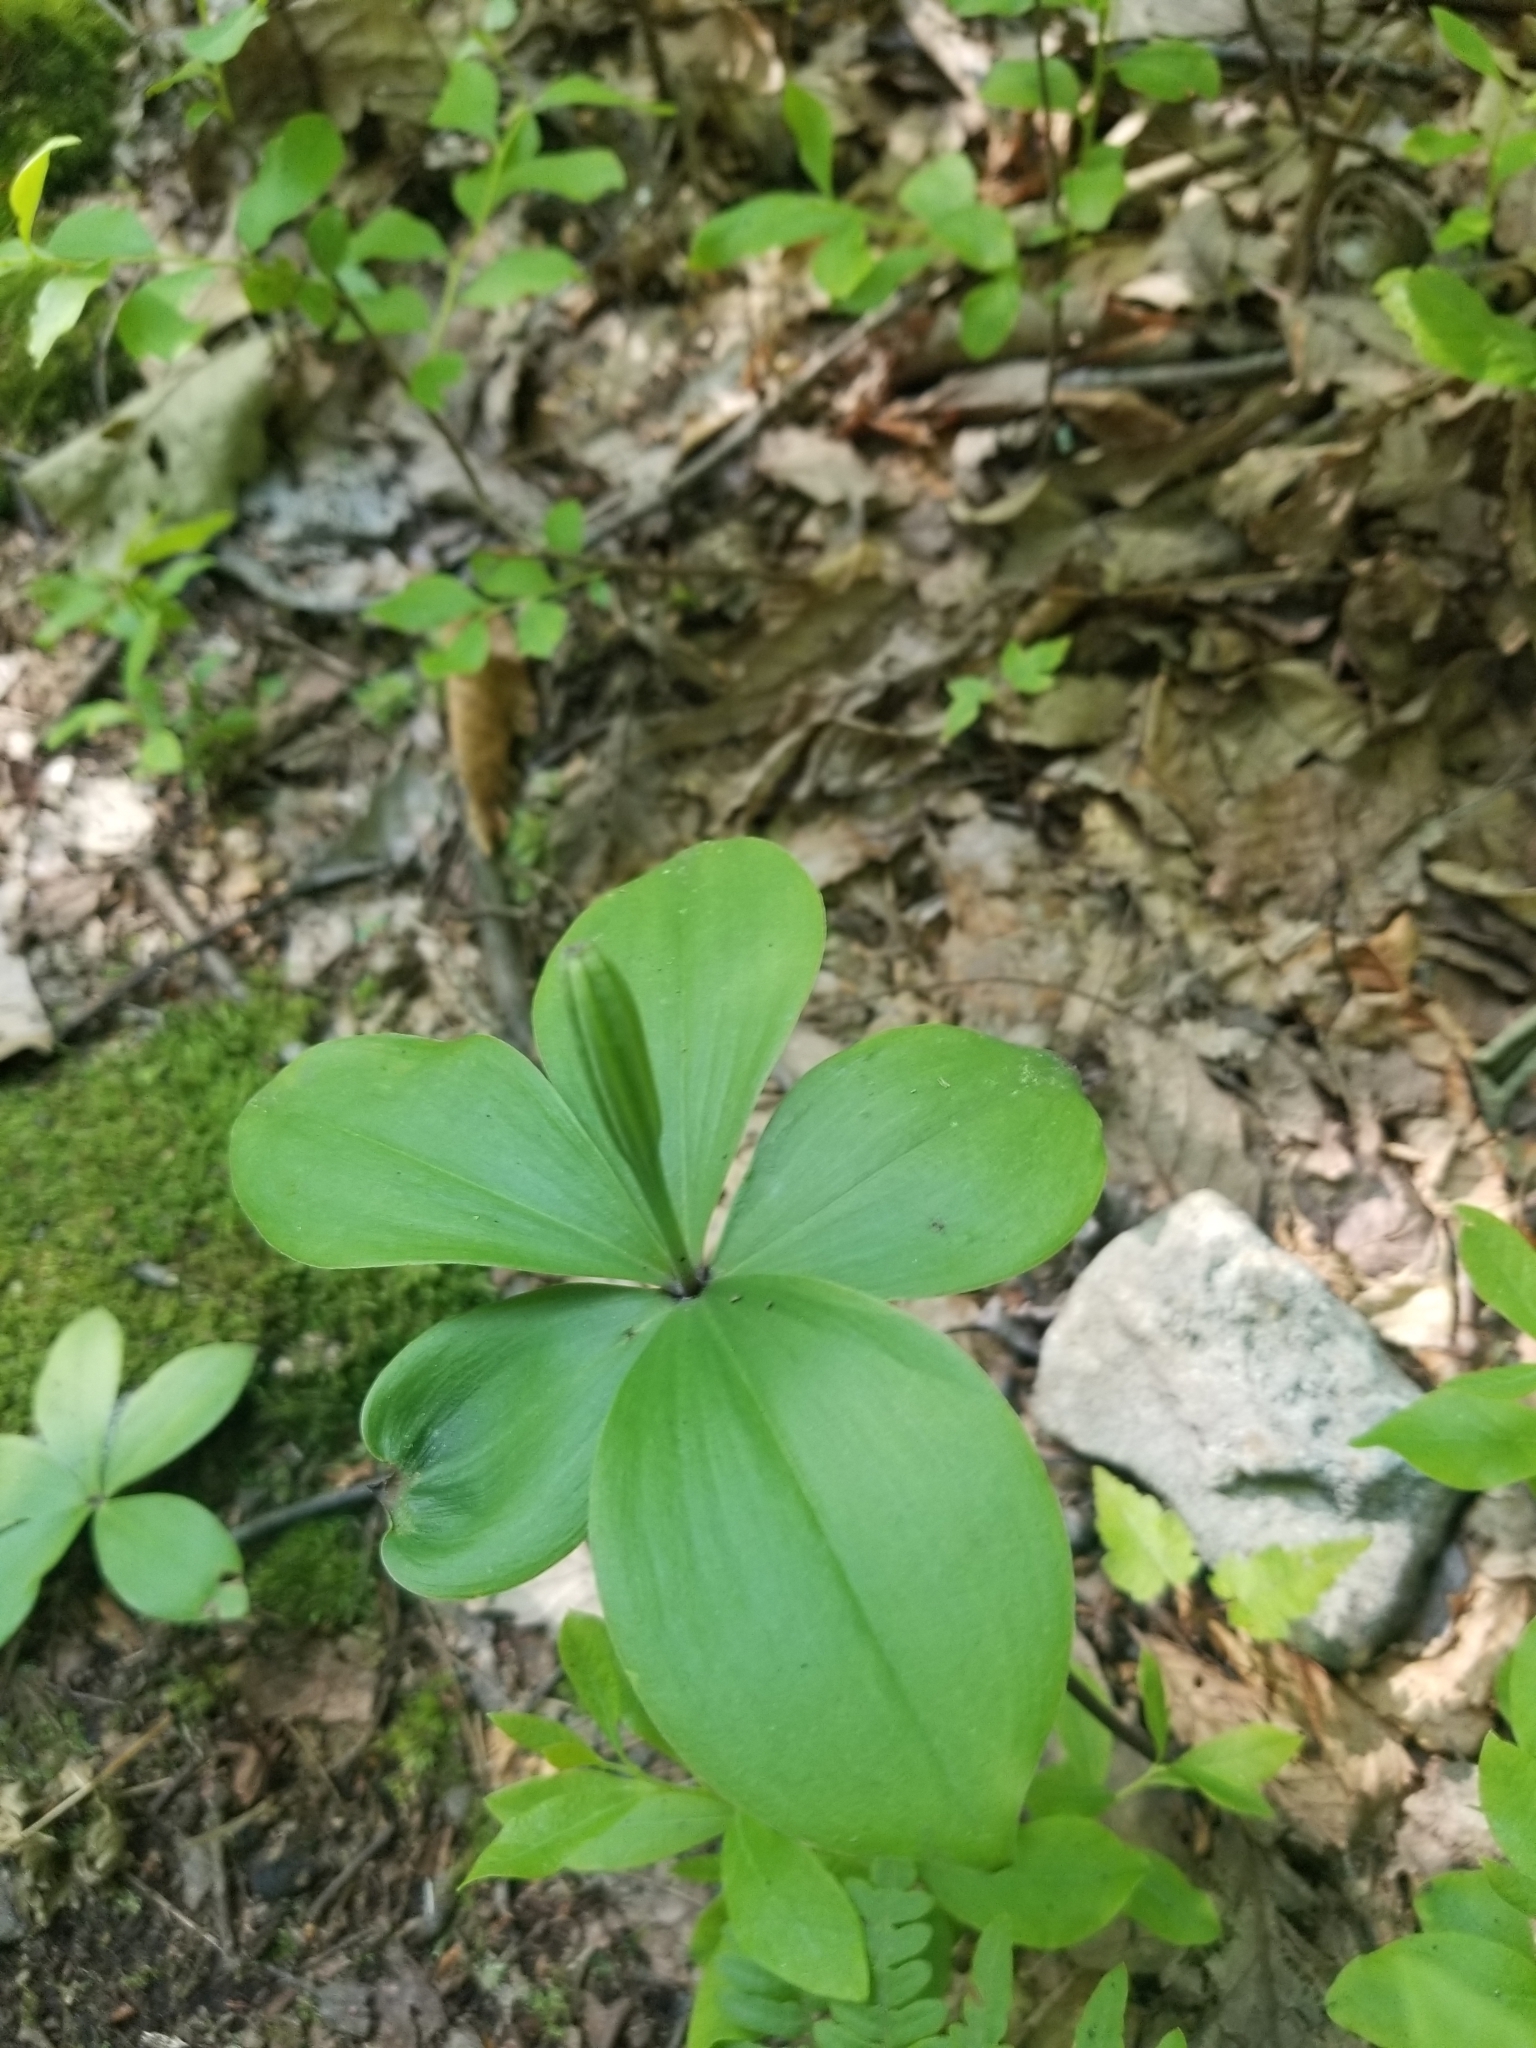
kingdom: Plantae
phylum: Tracheophyta
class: Liliopsida
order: Asparagales
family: Orchidaceae
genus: Isotria
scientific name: Isotria verticillata
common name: Large whorled pogonia
